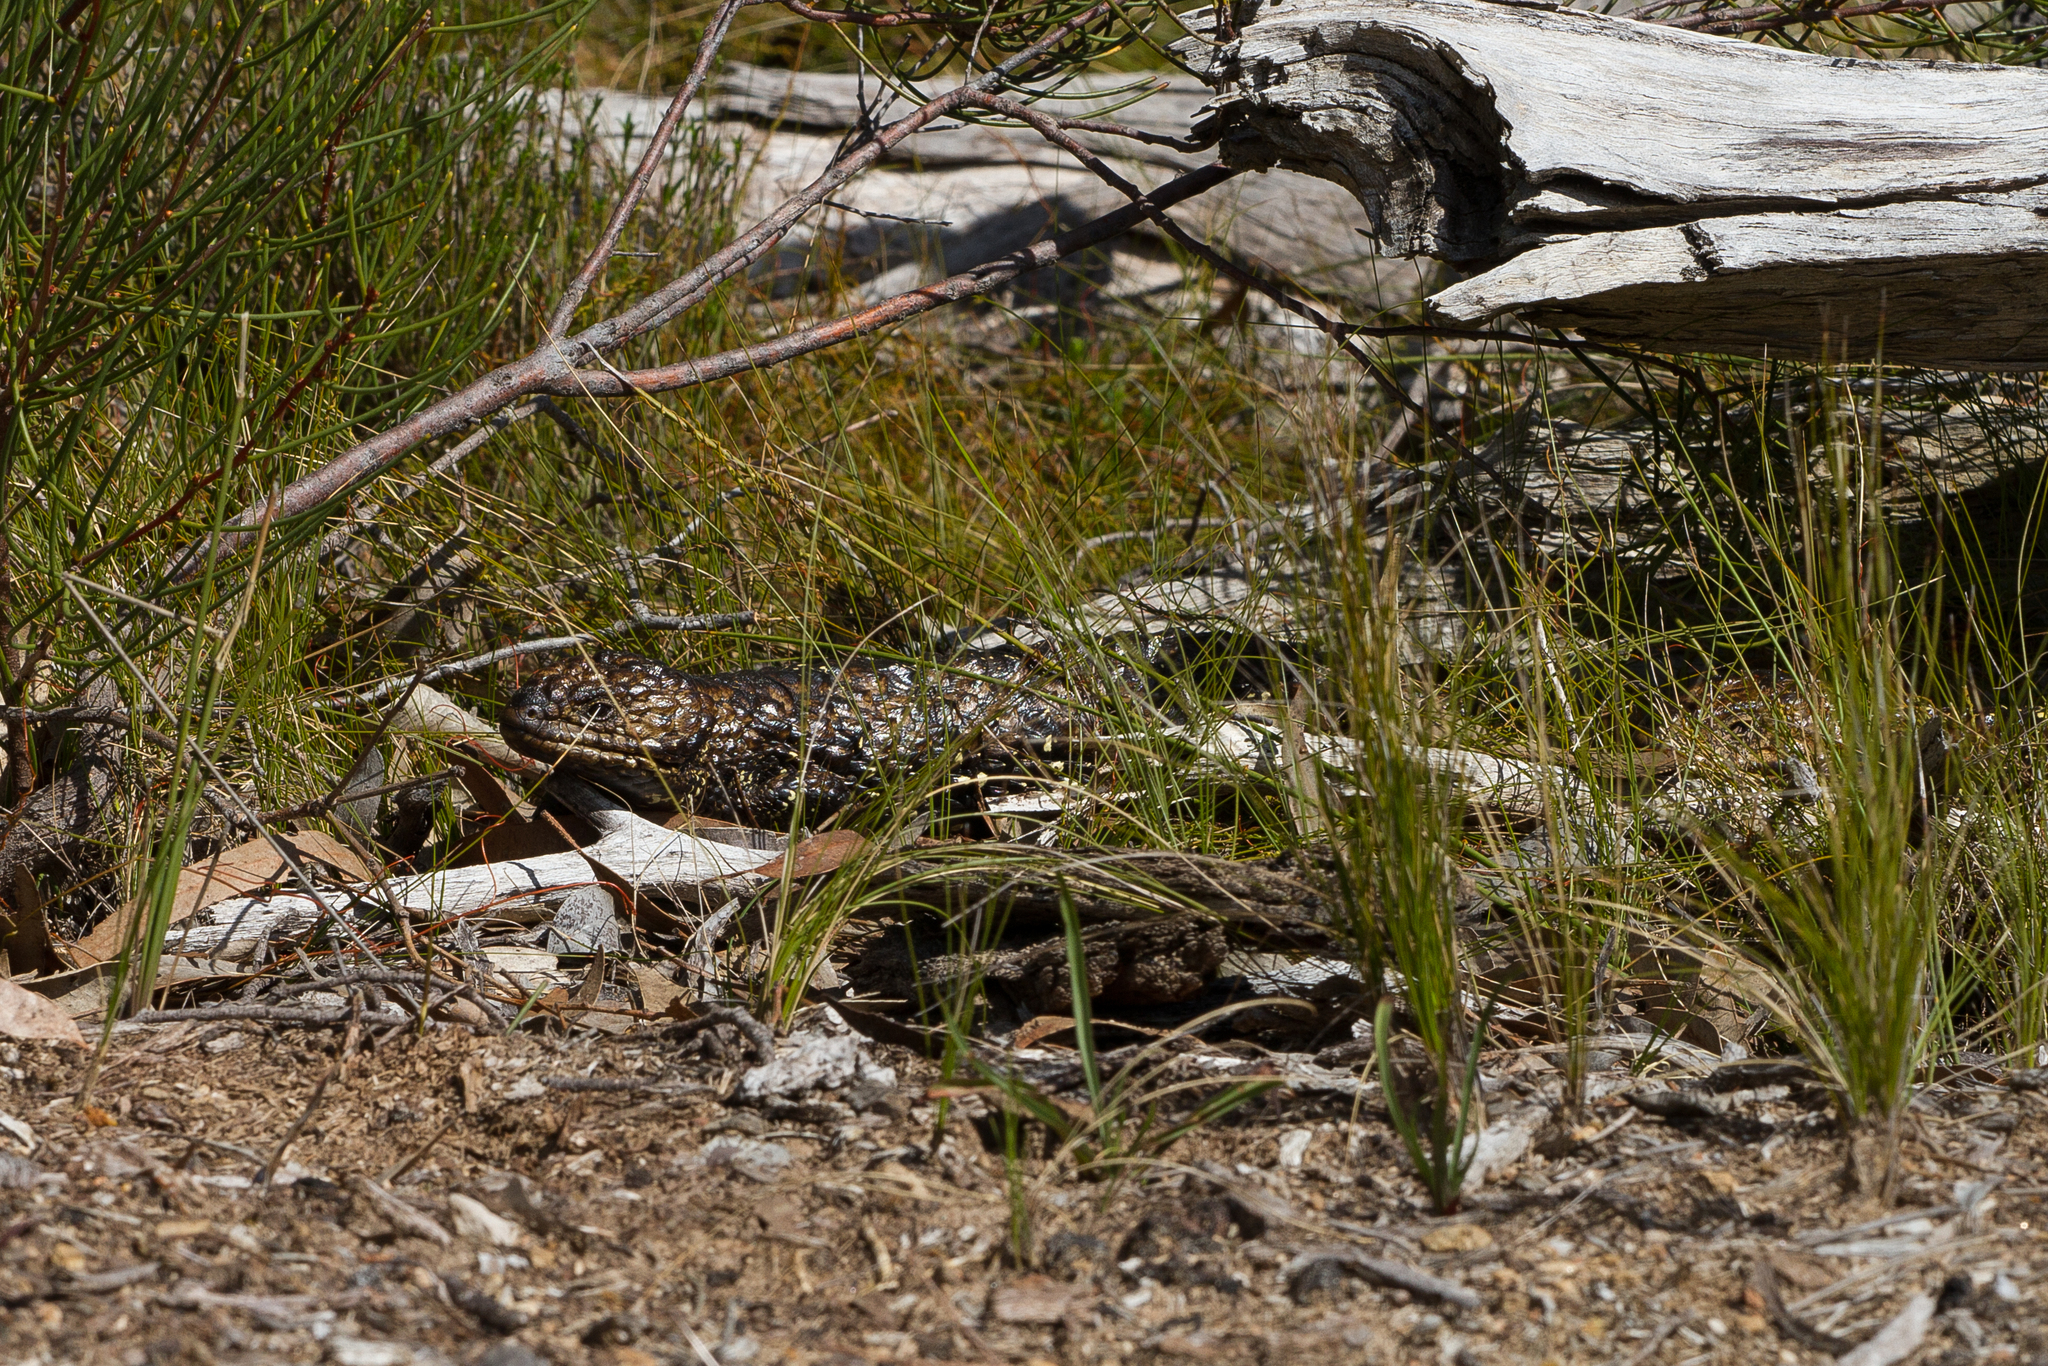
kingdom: Animalia
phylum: Chordata
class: Squamata
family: Scincidae
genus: Tiliqua
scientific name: Tiliqua rugosa
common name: Pinecone lizard
